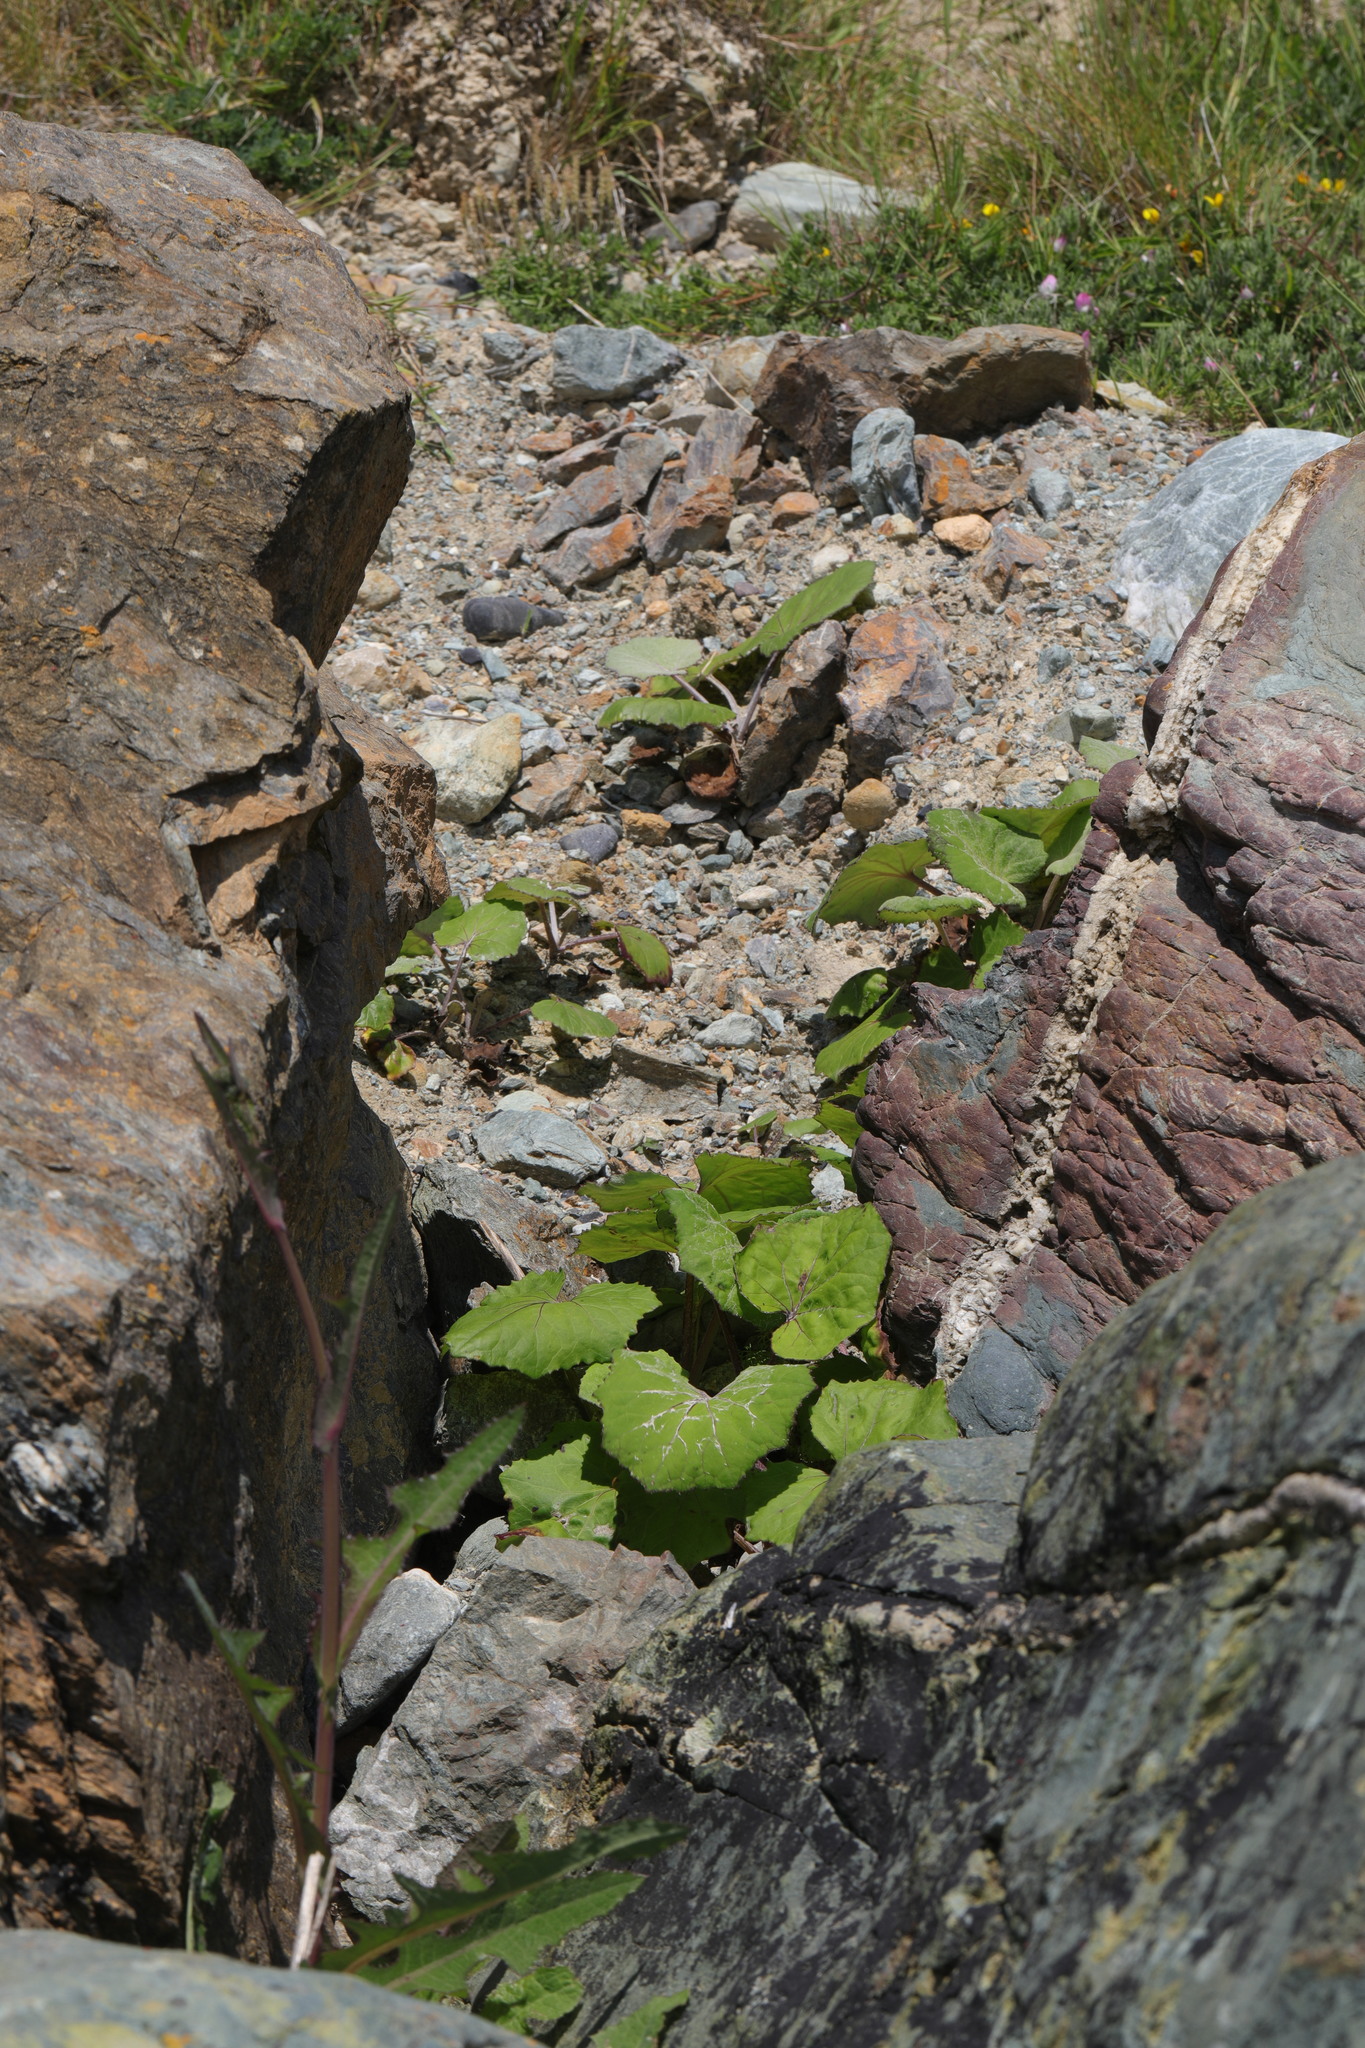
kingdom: Plantae
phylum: Tracheophyta
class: Magnoliopsida
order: Asterales
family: Asteraceae
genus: Tussilago
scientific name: Tussilago farfara
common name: Coltsfoot
